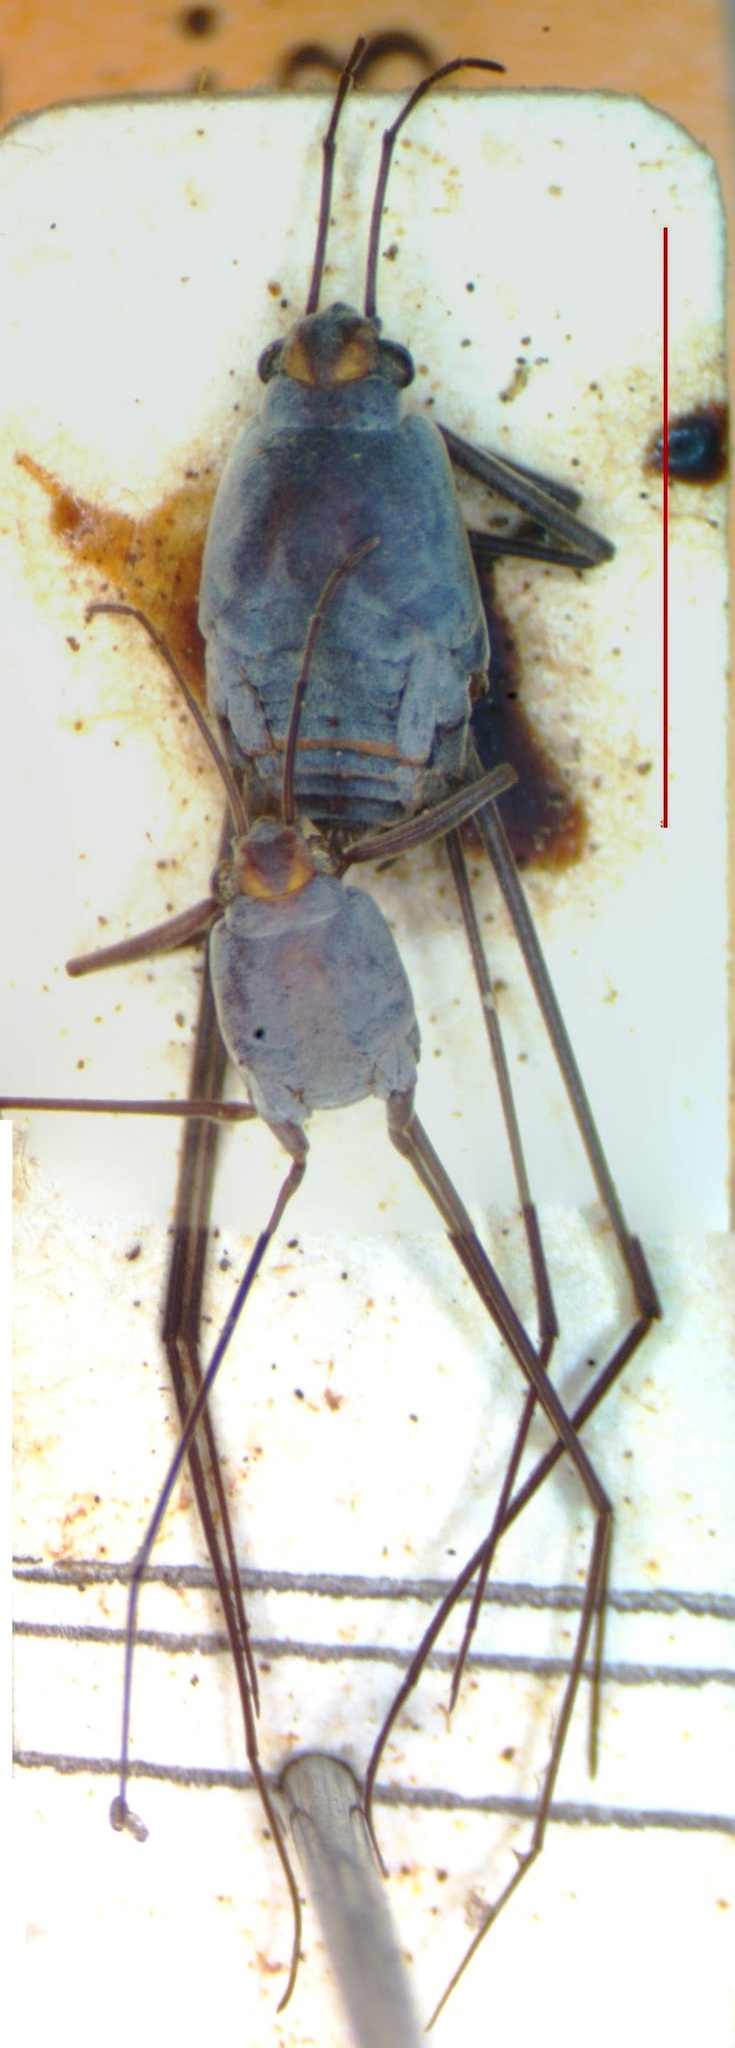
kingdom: Animalia
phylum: Arthropoda
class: Insecta
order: Hemiptera
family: Gerridae
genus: Halobates
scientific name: Halobates
